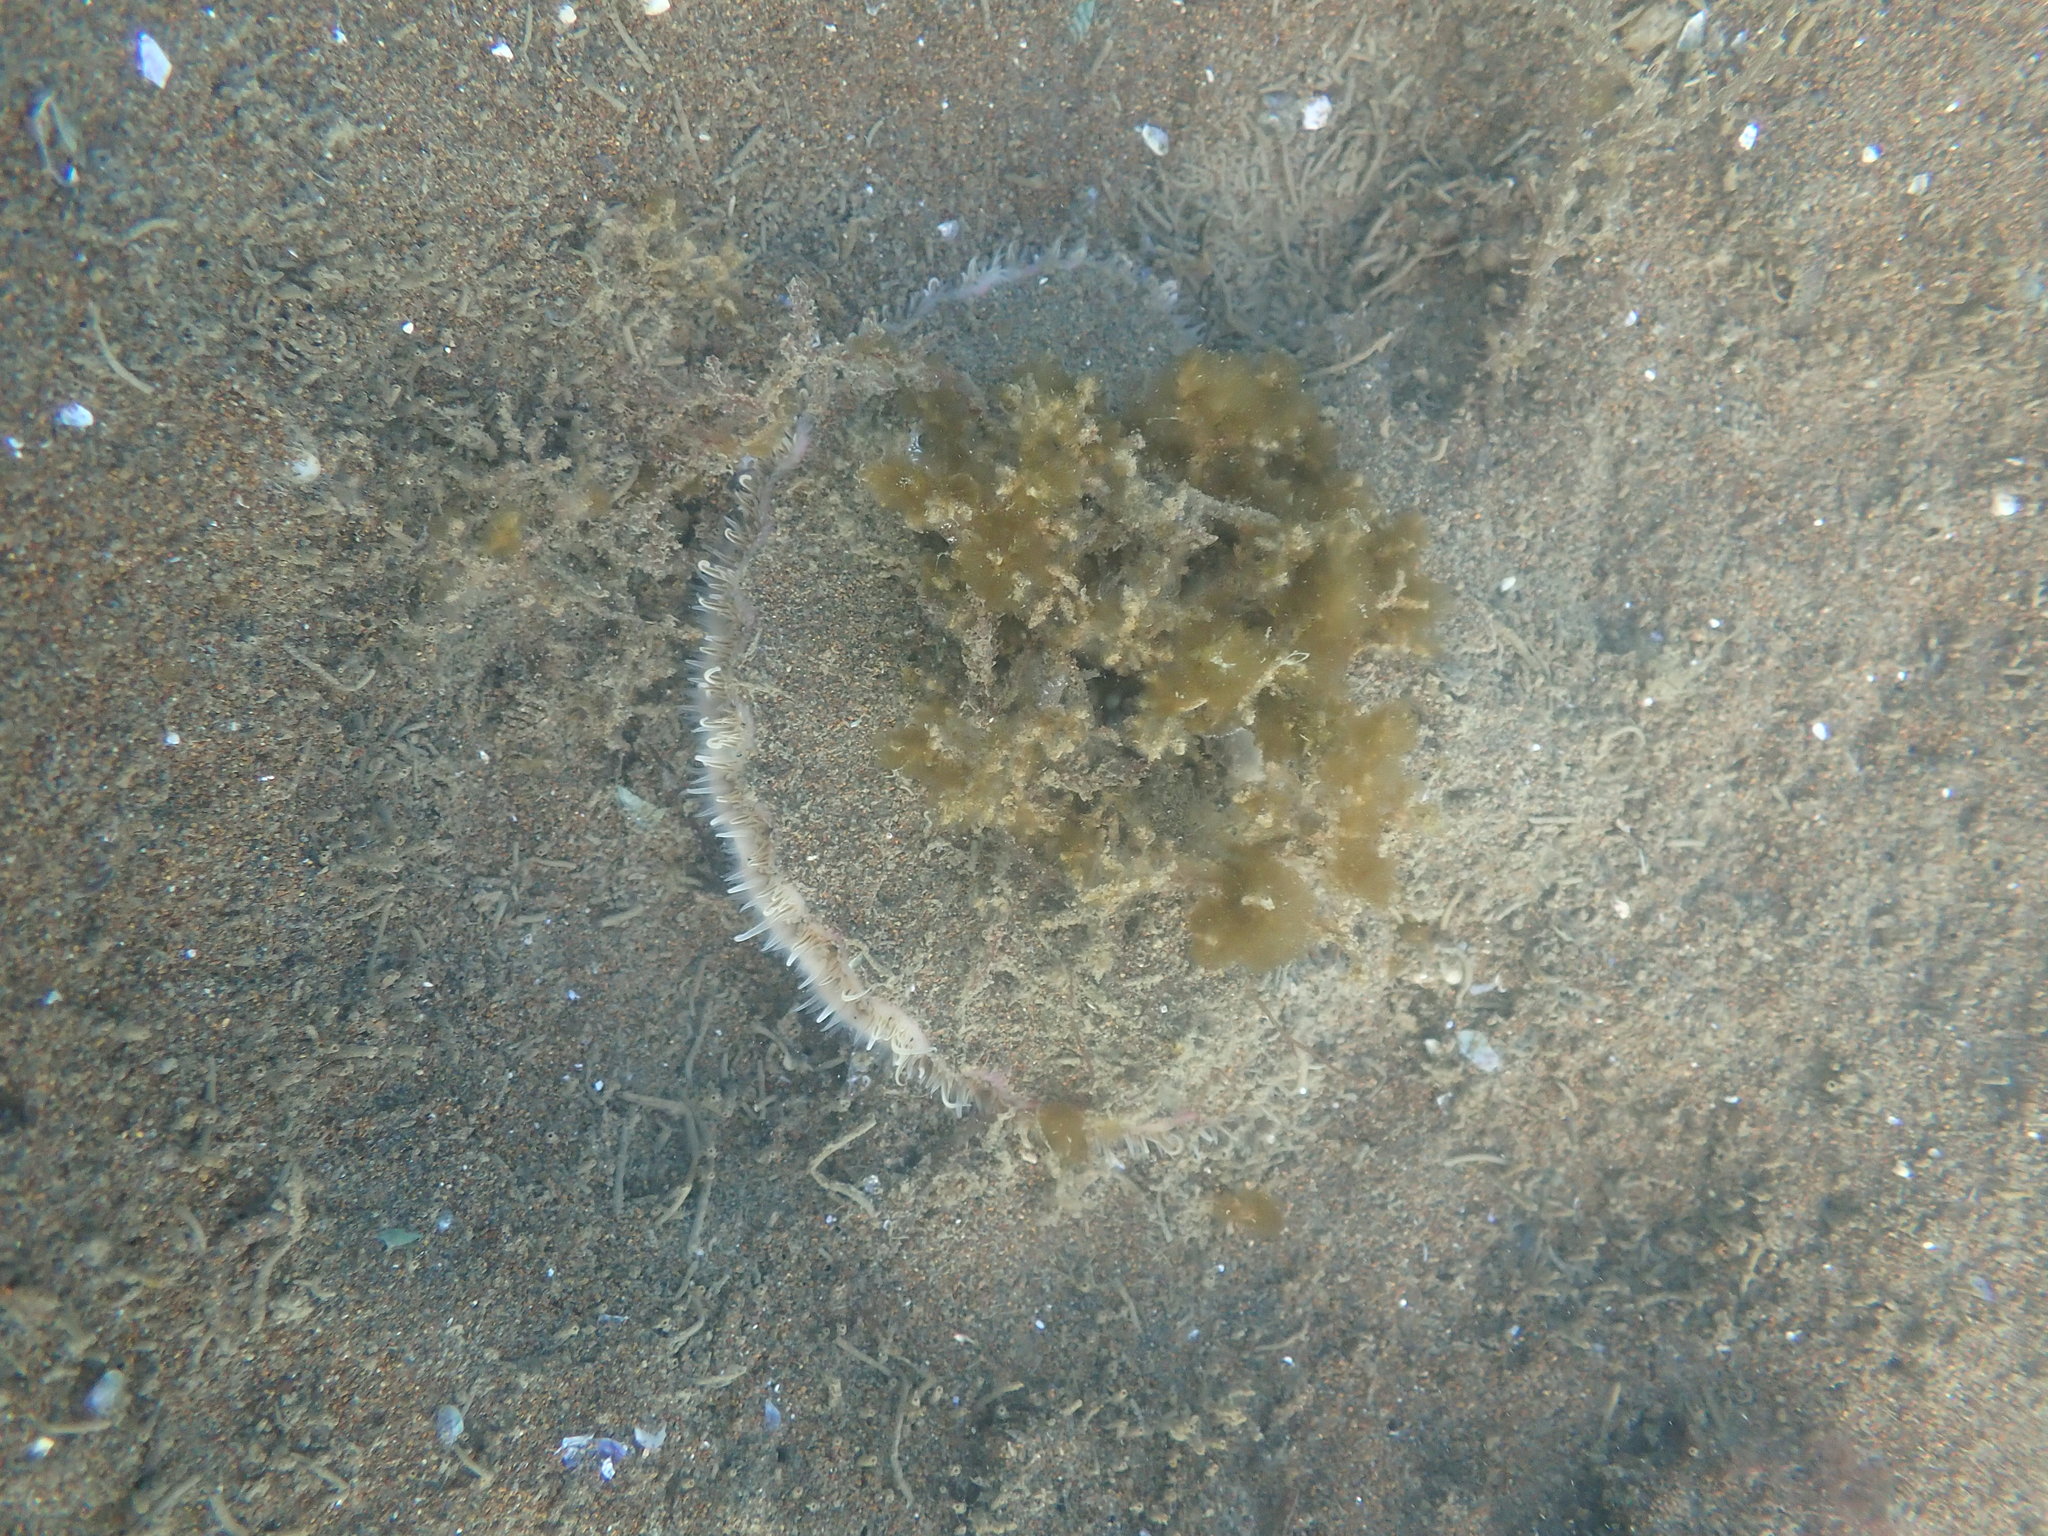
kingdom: Animalia
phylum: Mollusca
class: Bivalvia
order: Pectinida
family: Pectinidae
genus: Pecten
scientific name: Pecten novaezelandiae
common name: New zealand scallop
